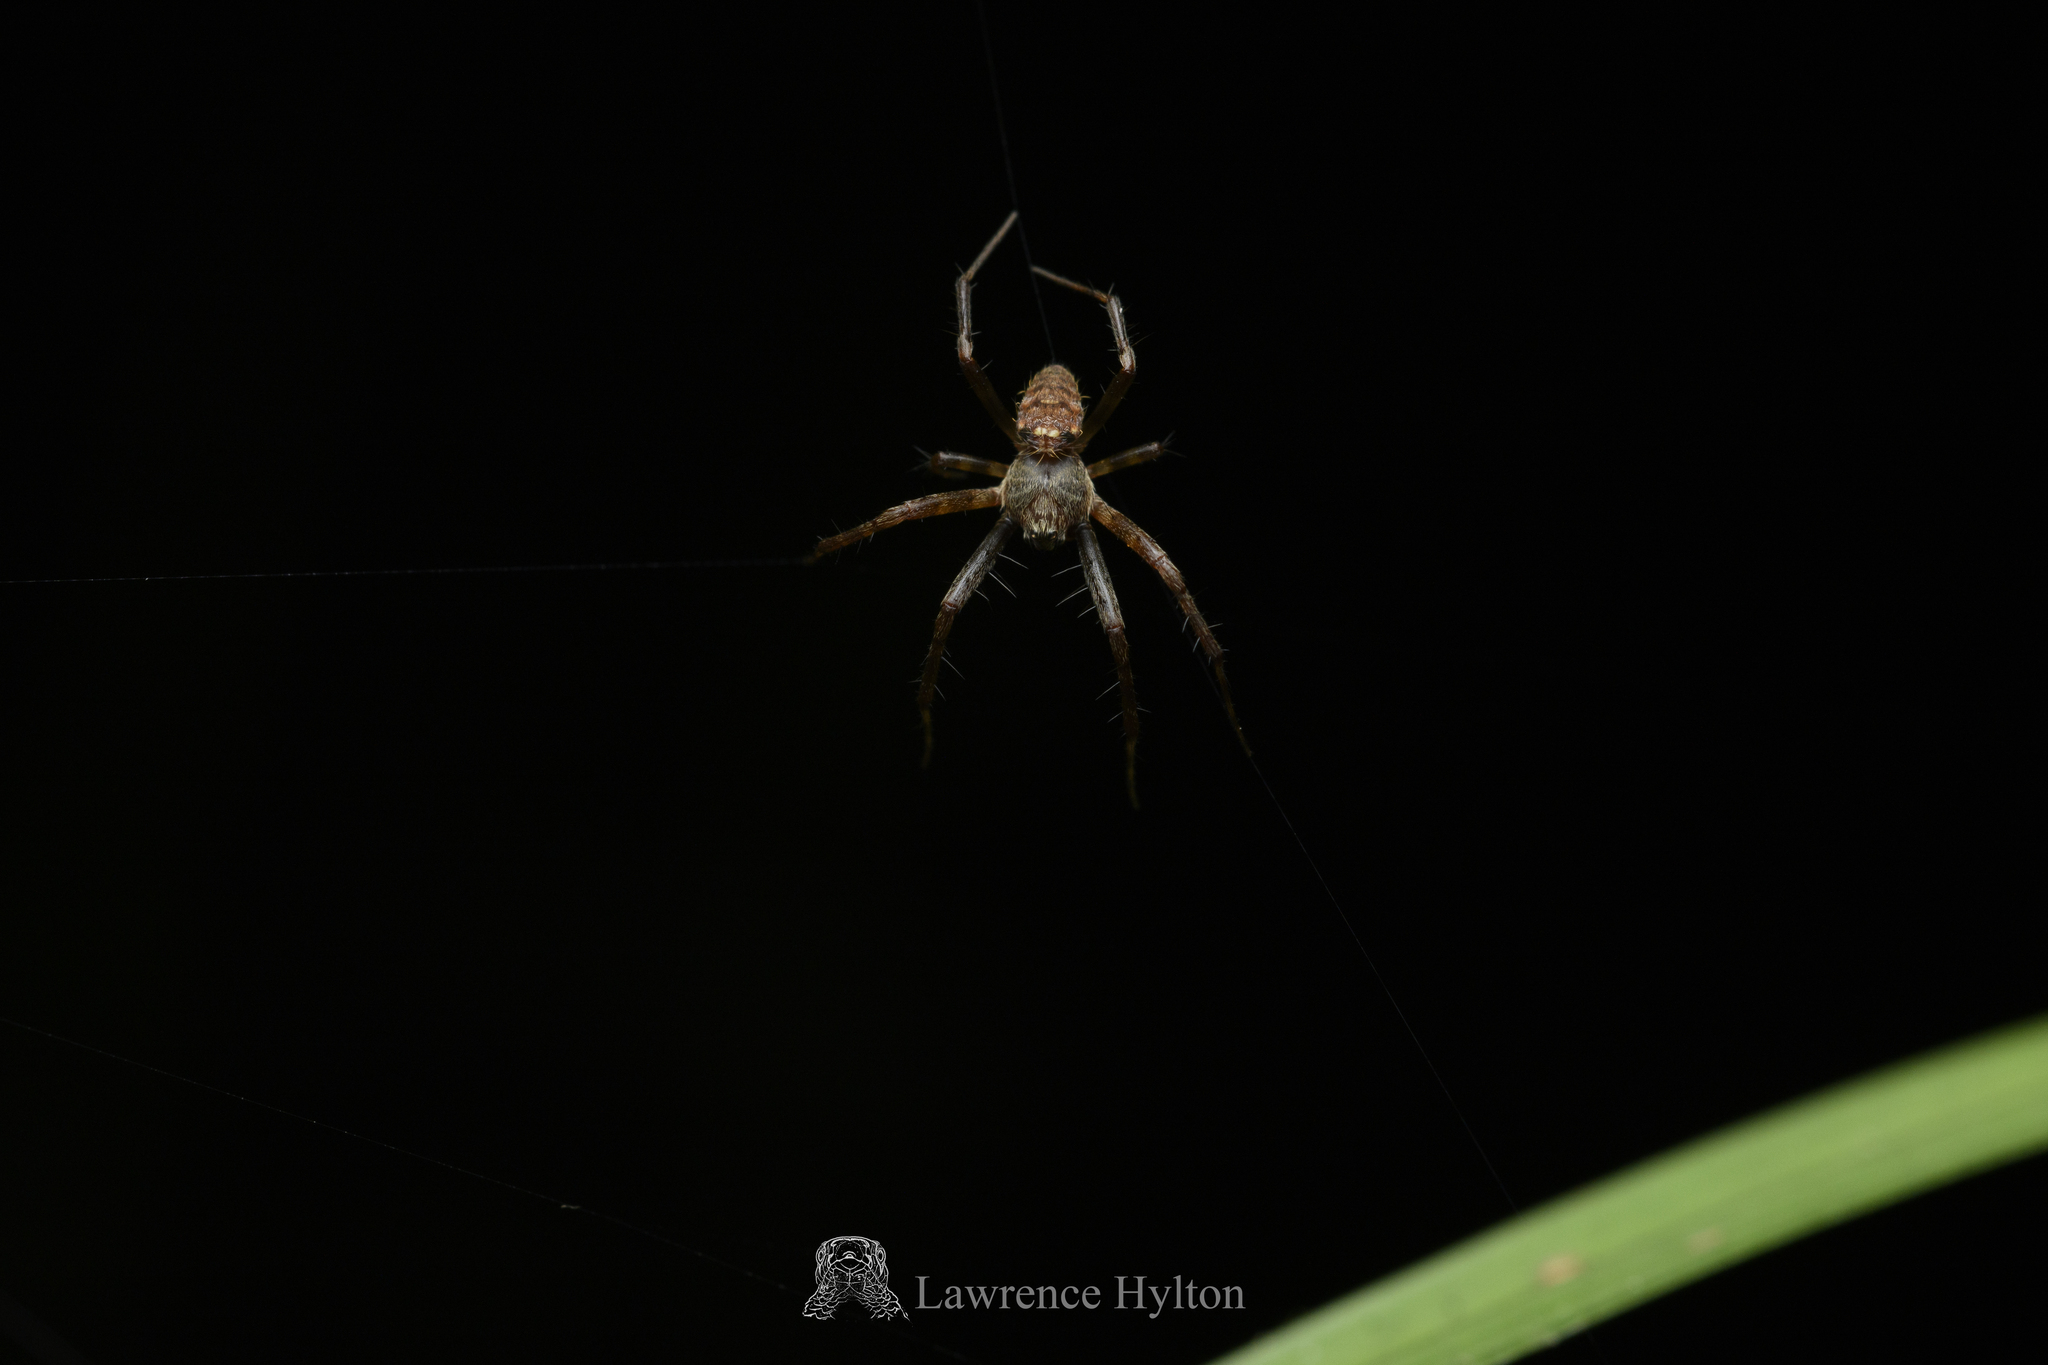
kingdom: Animalia
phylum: Arthropoda
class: Arachnida
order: Araneae
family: Araneidae
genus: Gea
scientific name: Gea spinipes
